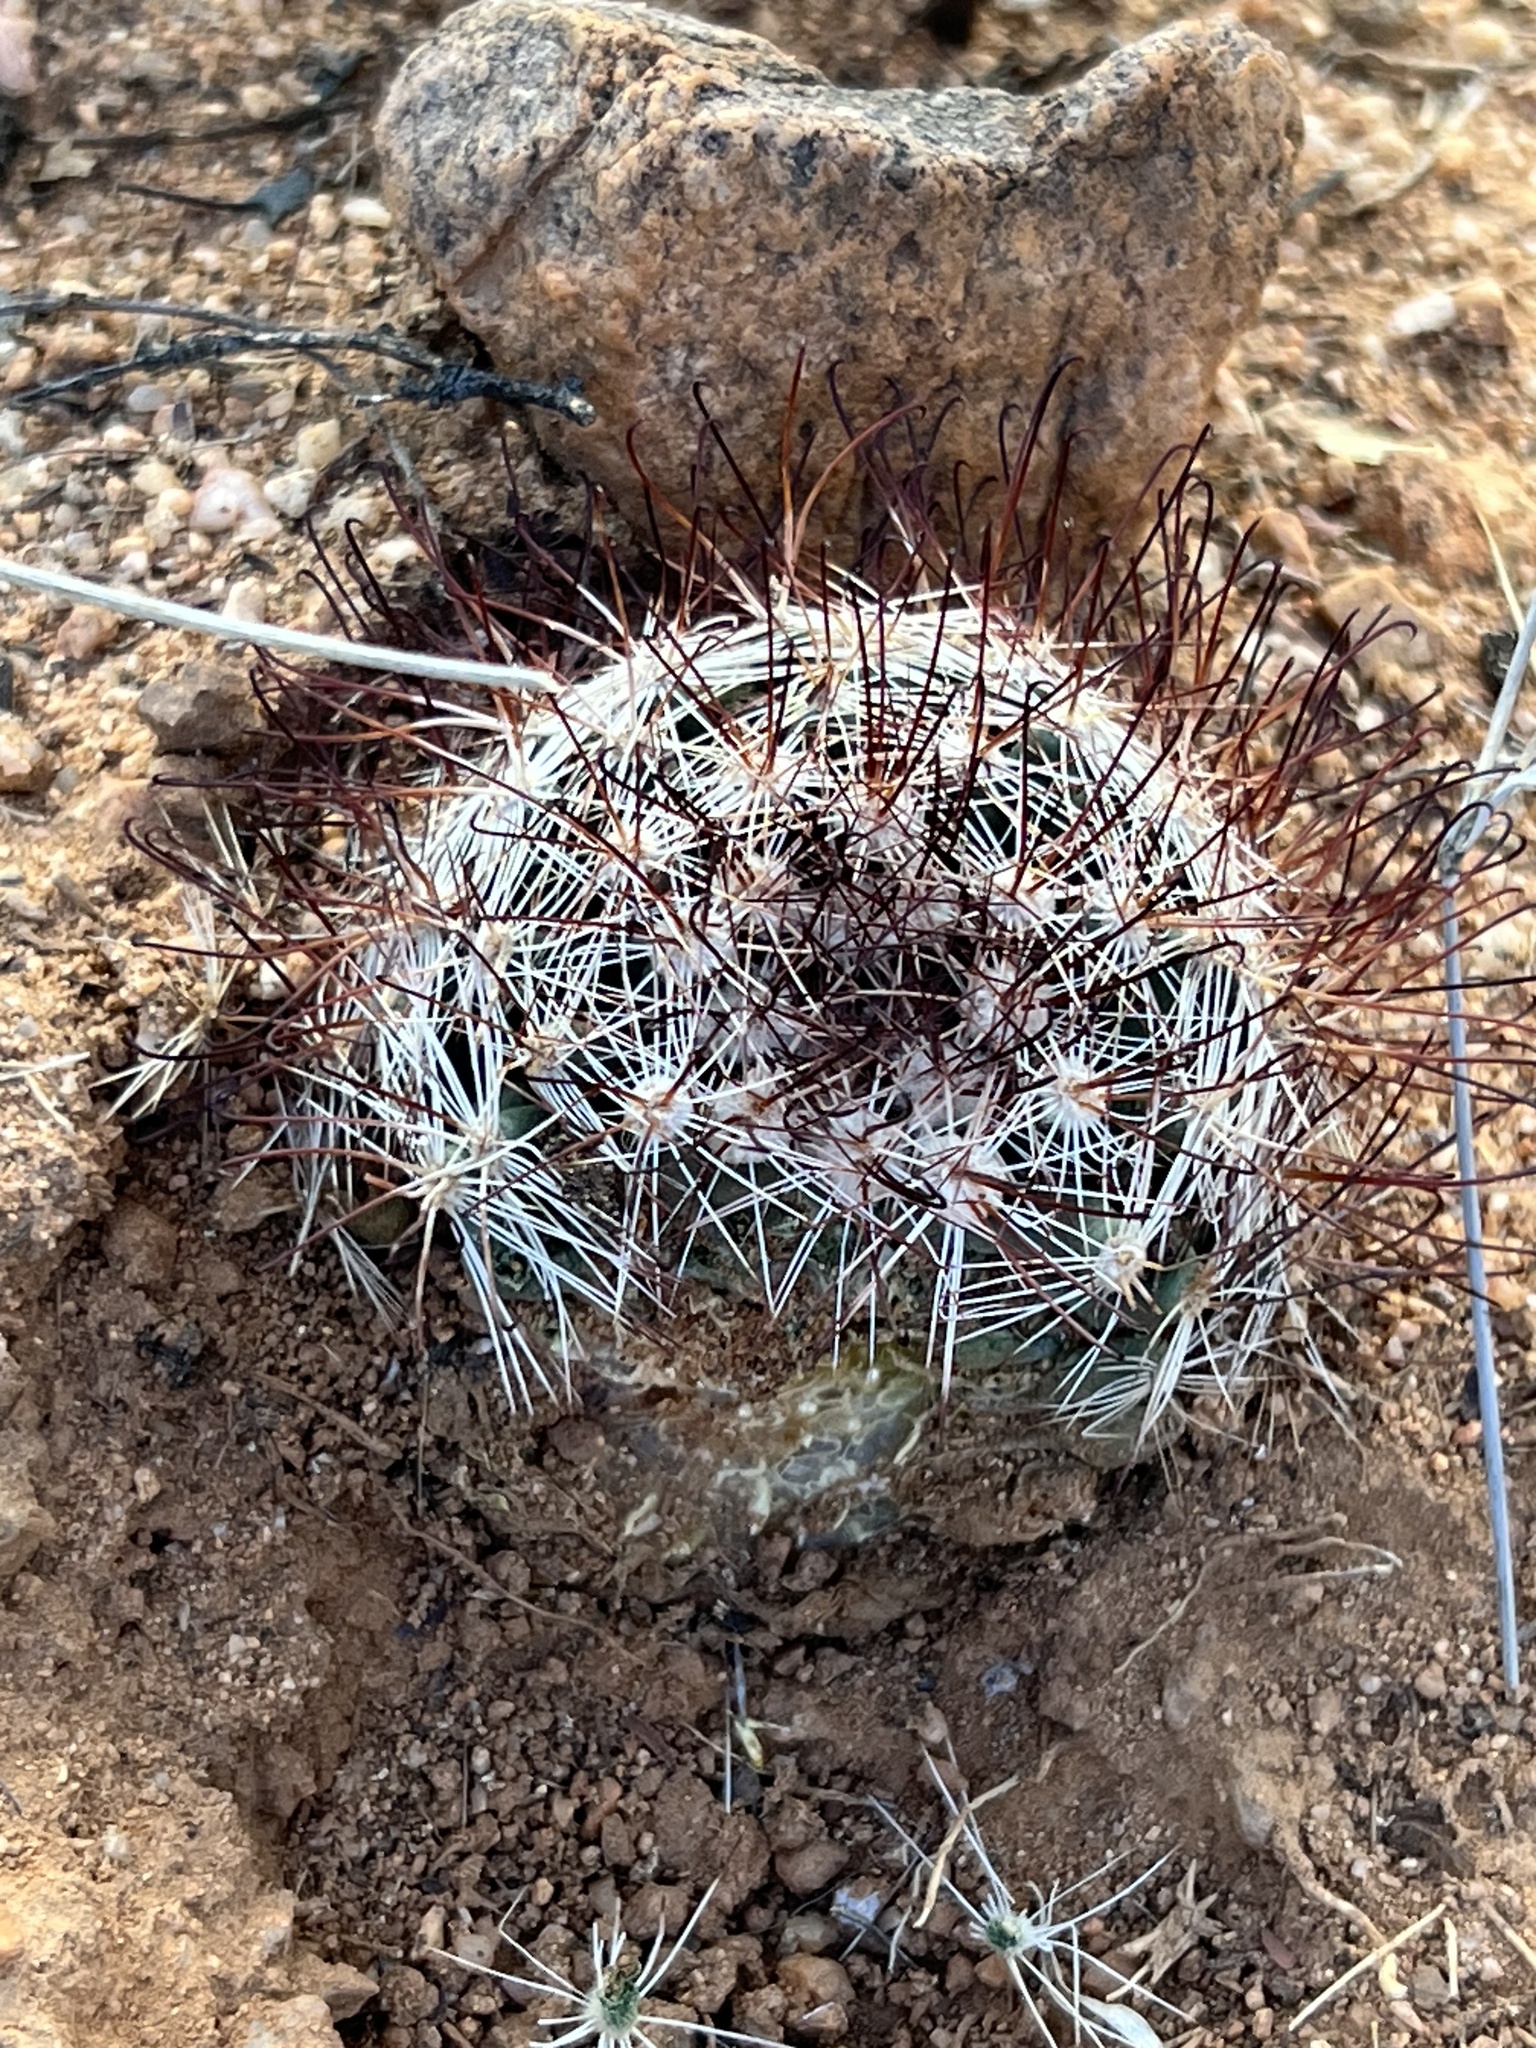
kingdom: Plantae
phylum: Tracheophyta
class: Magnoliopsida
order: Caryophyllales
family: Cactaceae
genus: Cochemiea
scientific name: Cochemiea wrightii
